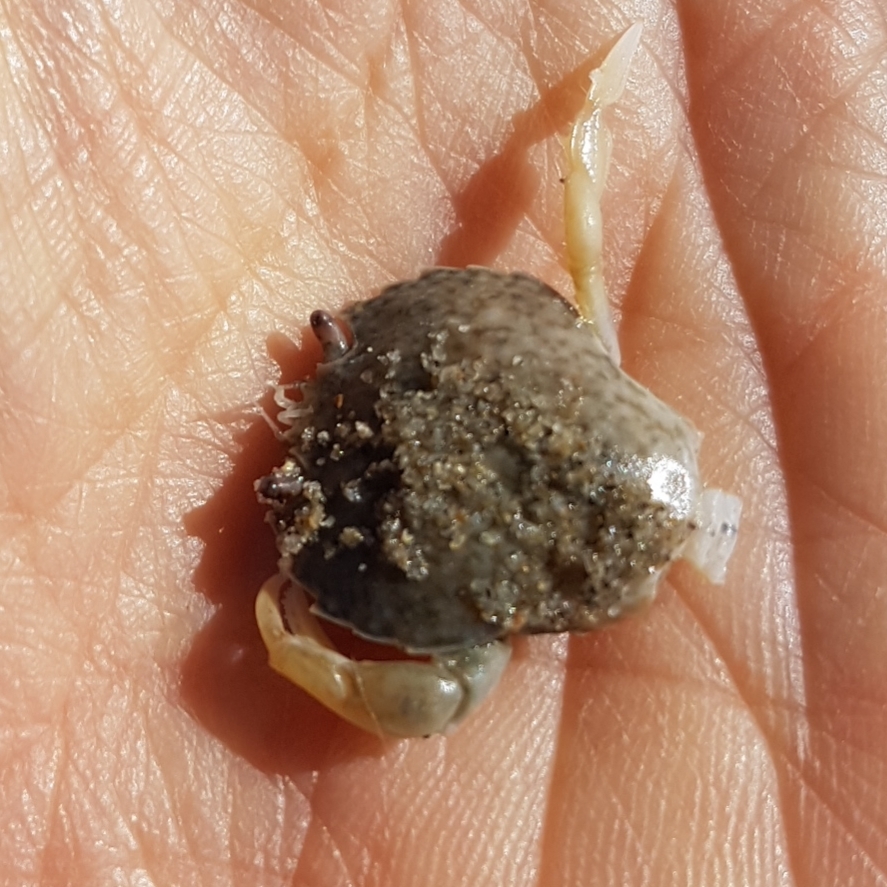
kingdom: Animalia
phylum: Arthropoda
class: Malacostraca
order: Decapoda
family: Carcinidae
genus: Portumnus
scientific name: Portumnus latipes
